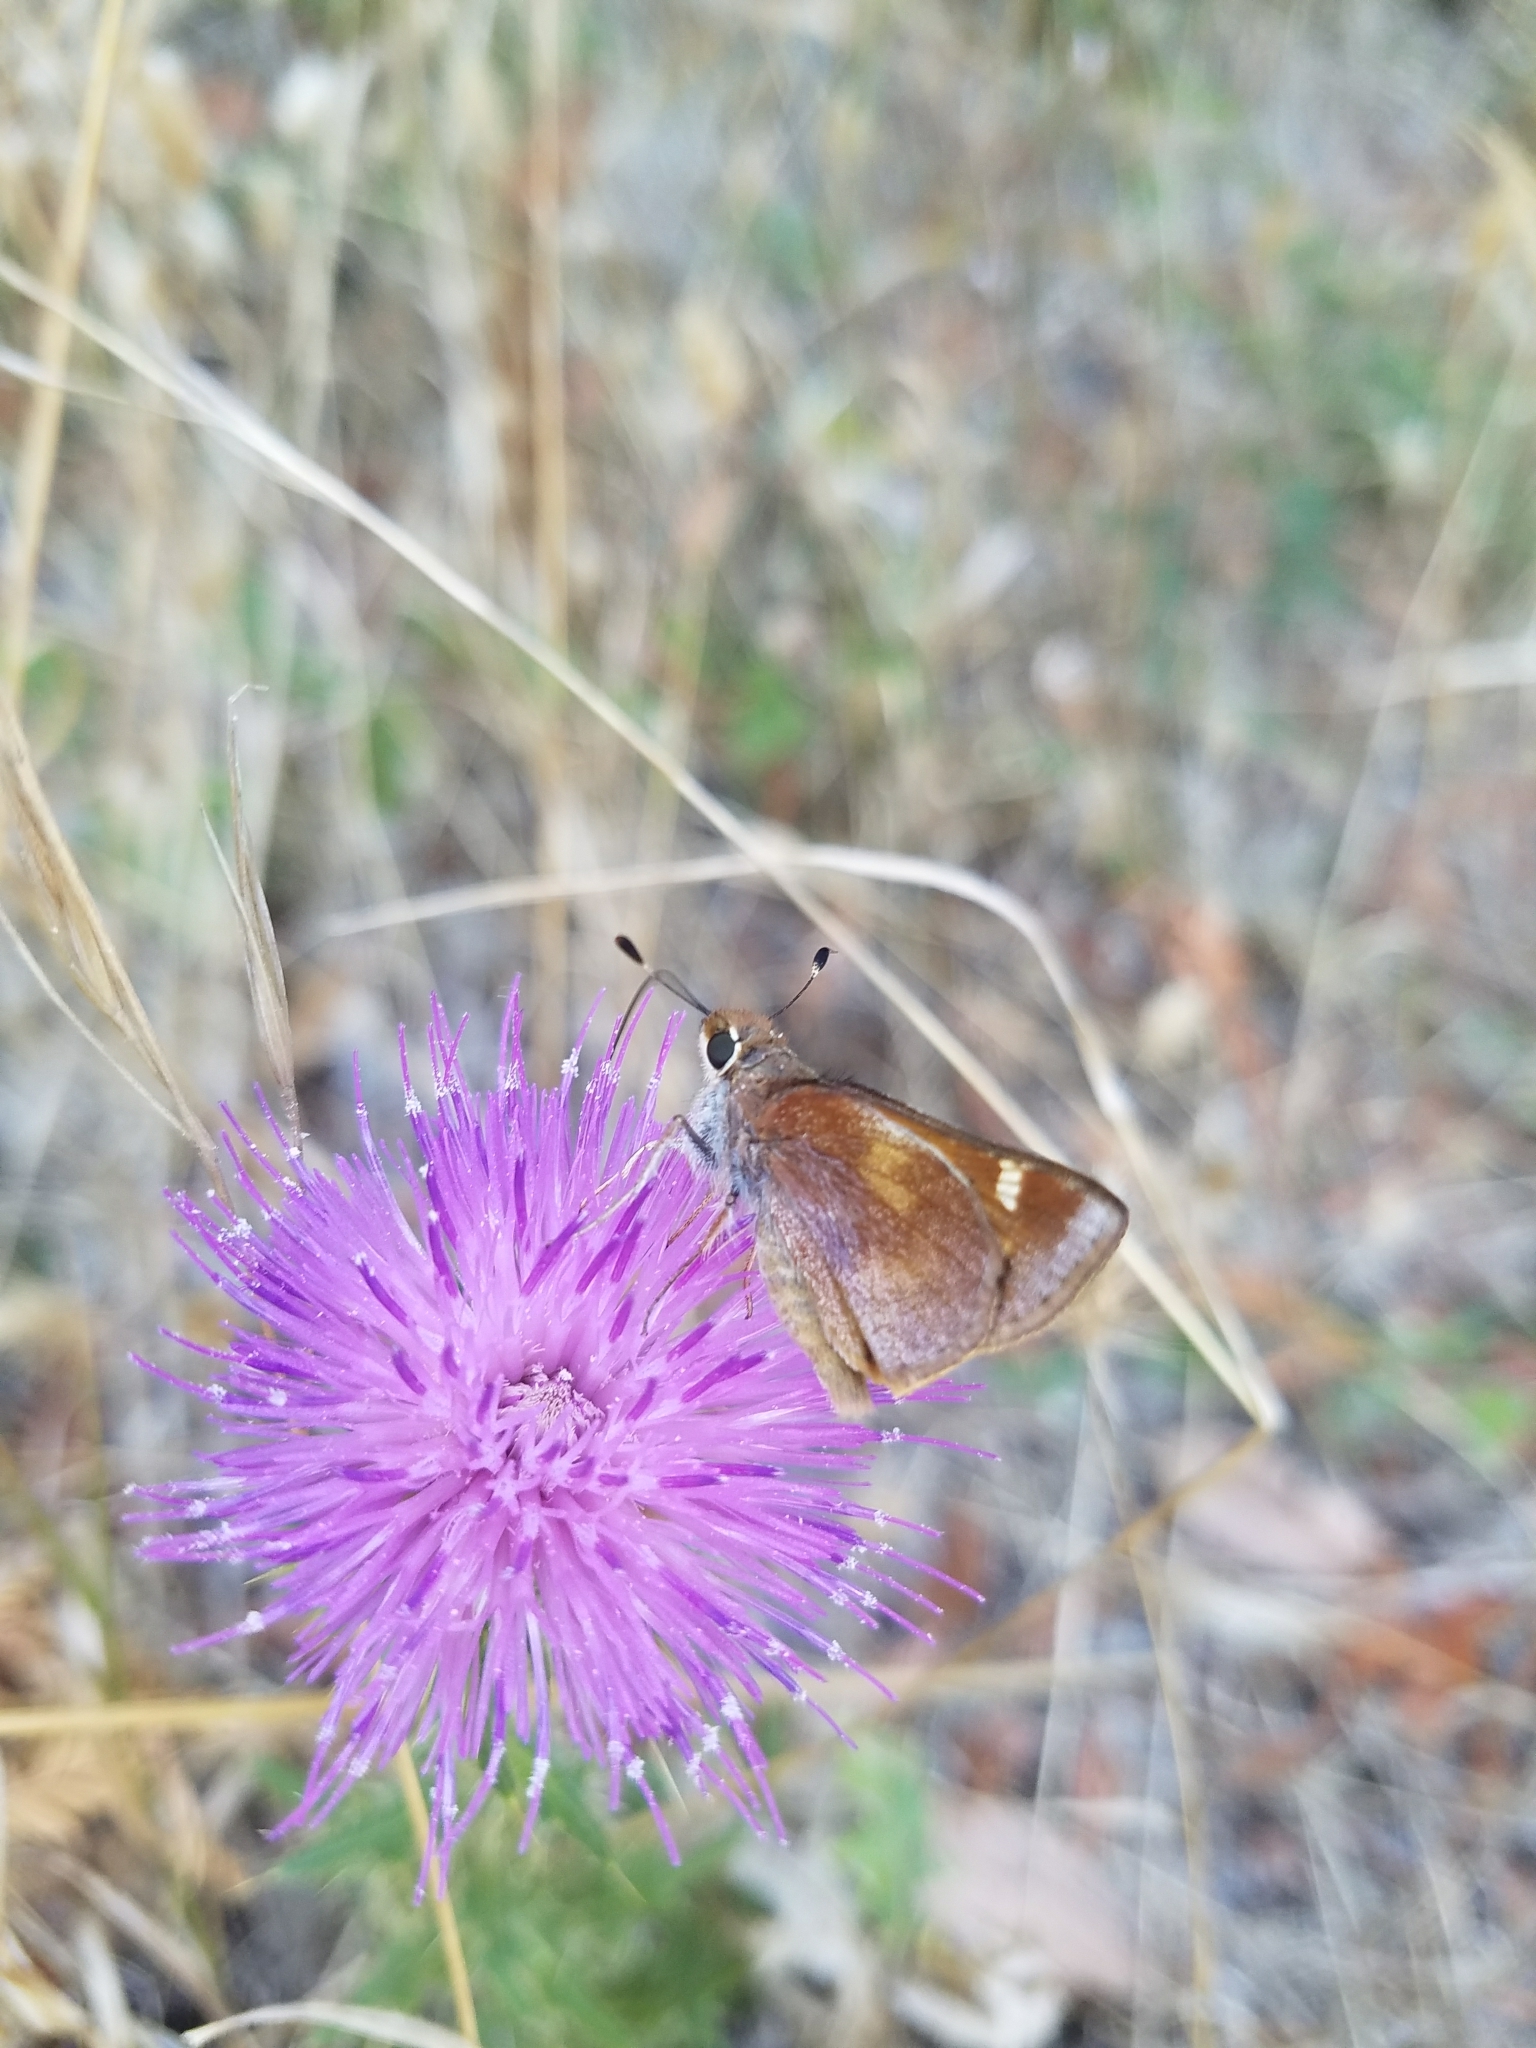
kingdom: Animalia
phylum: Arthropoda
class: Insecta
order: Lepidoptera
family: Hesperiidae
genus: Lon
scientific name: Lon melane
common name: Umber skipper
